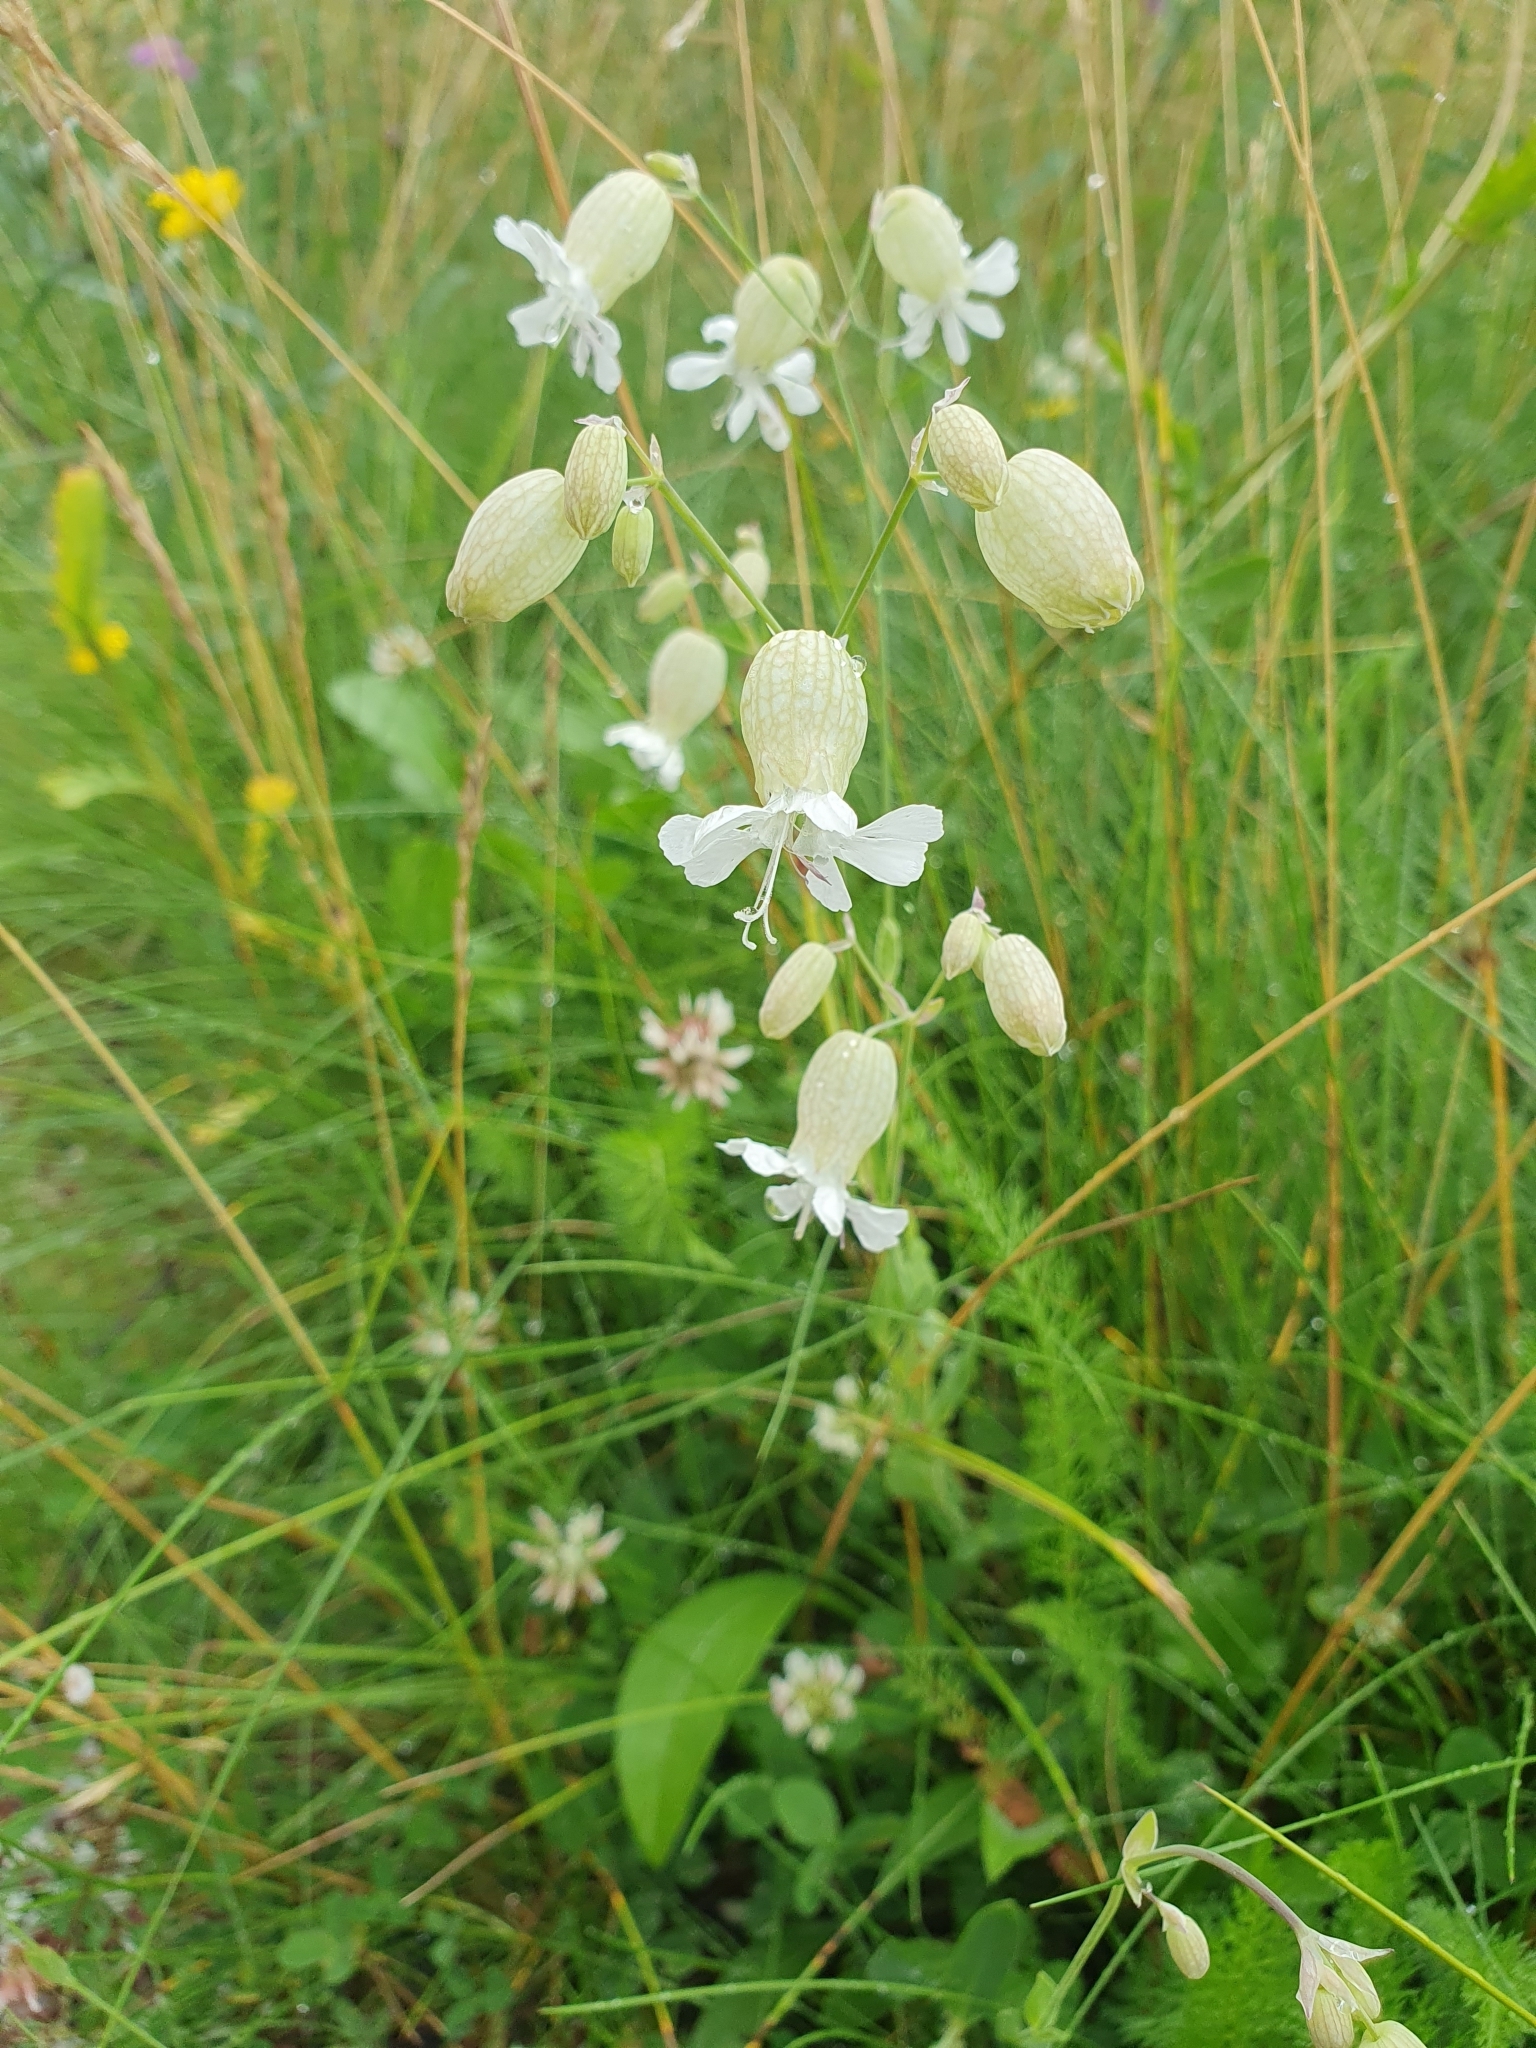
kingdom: Plantae
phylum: Tracheophyta
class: Magnoliopsida
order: Caryophyllales
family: Caryophyllaceae
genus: Silene
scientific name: Silene vulgaris
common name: Bladder campion
